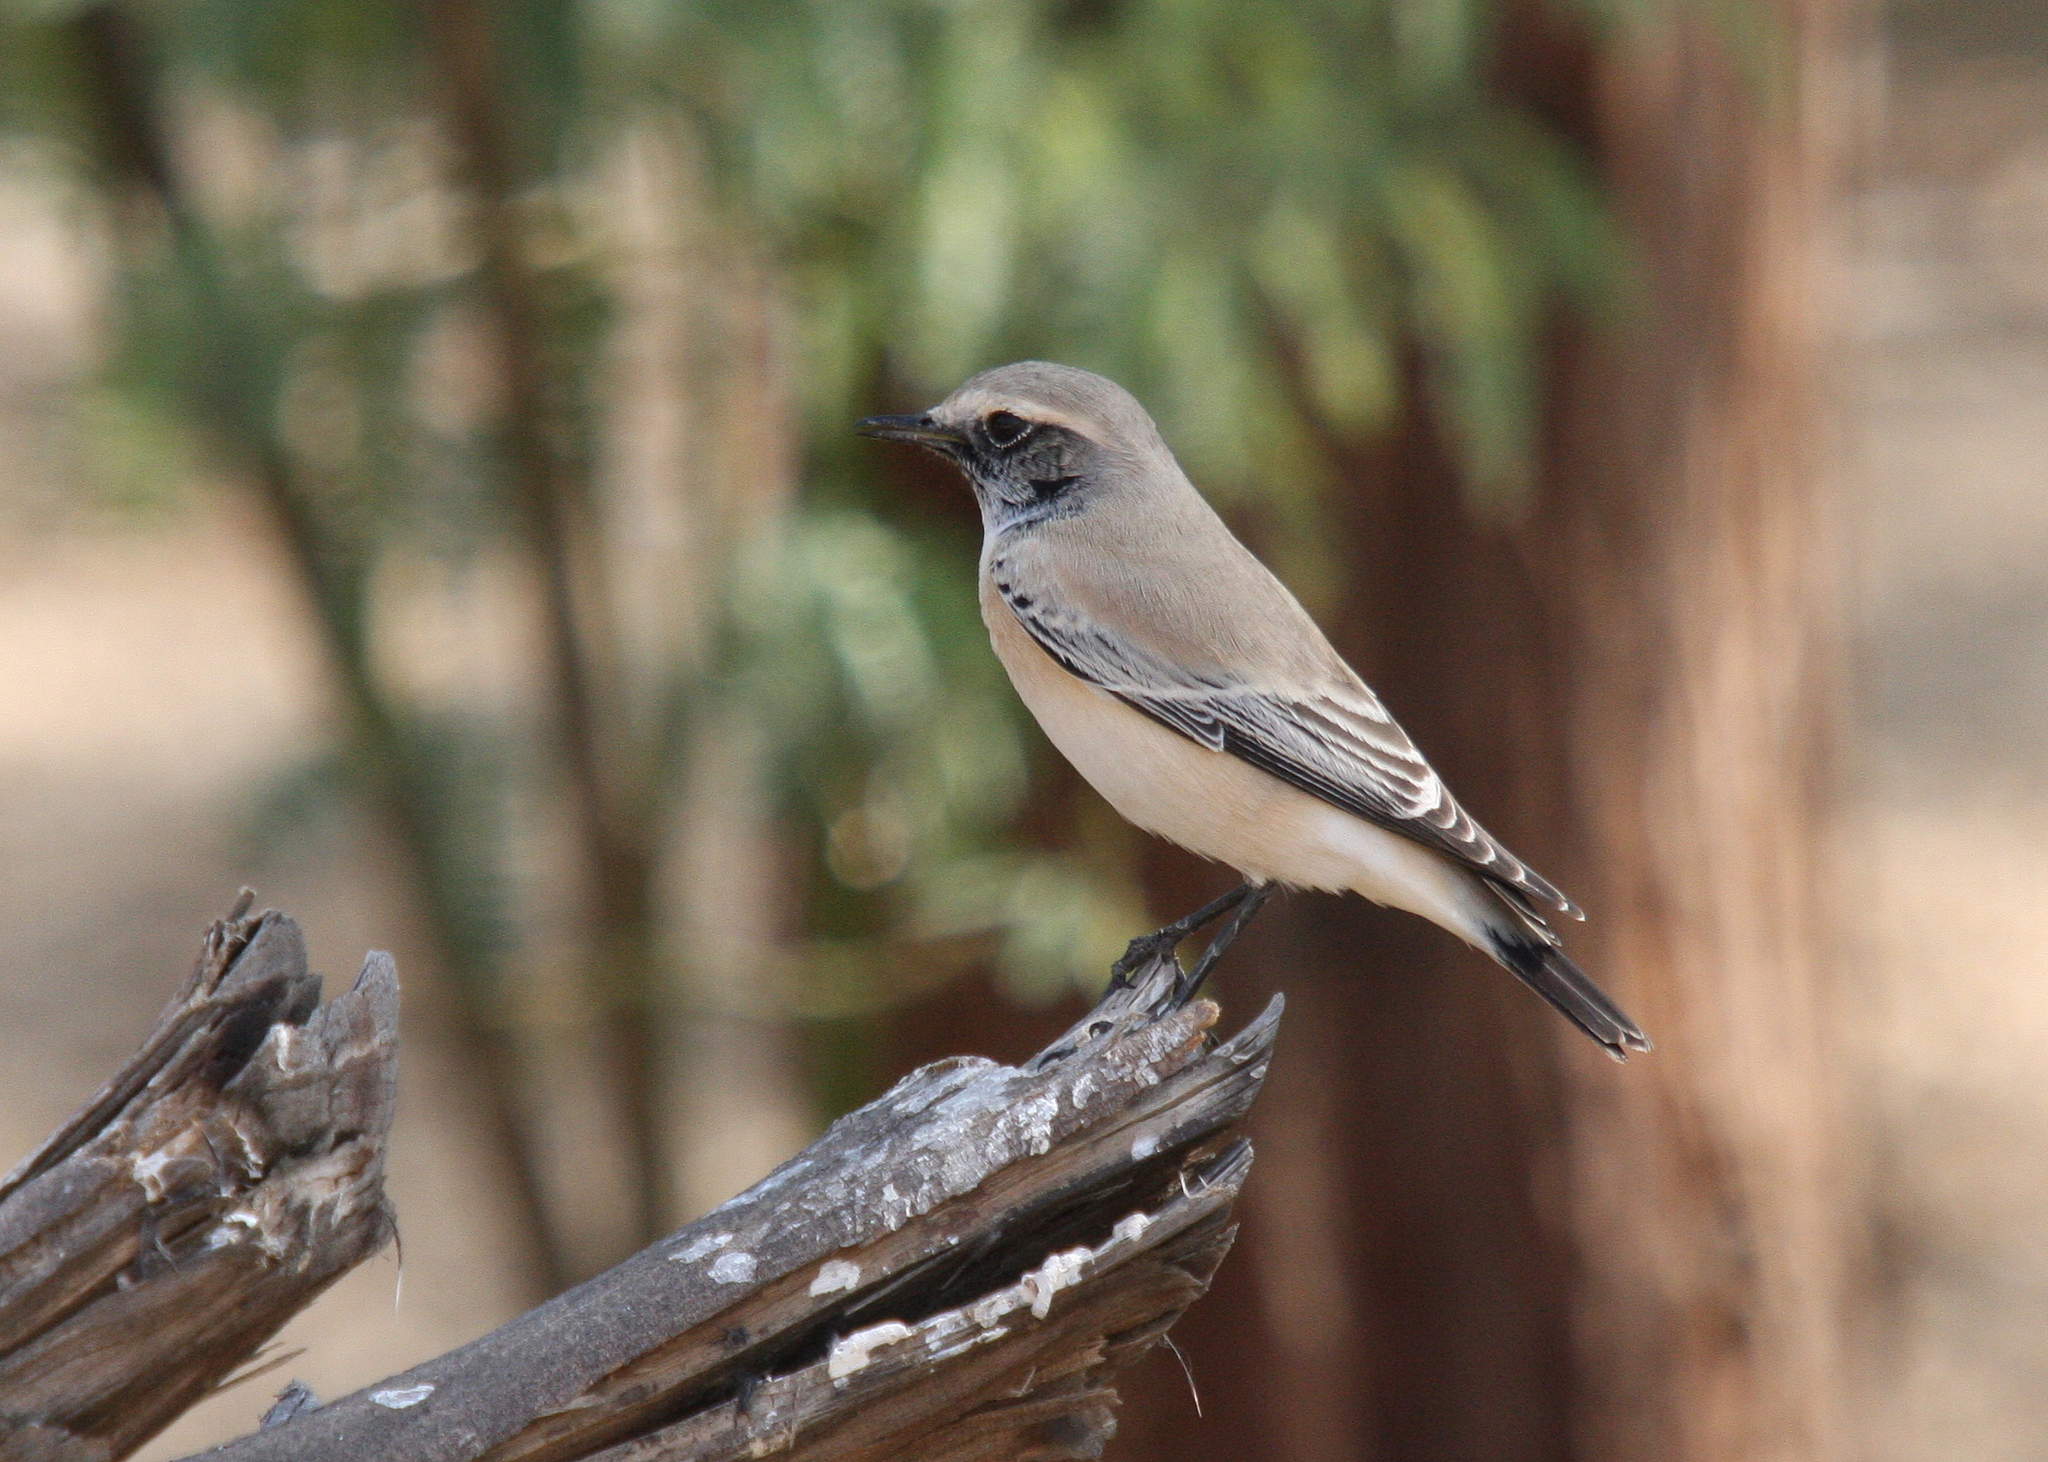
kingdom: Animalia
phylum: Chordata
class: Aves
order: Passeriformes
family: Muscicapidae
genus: Oenanthe
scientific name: Oenanthe deserti
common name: Desert wheatear
